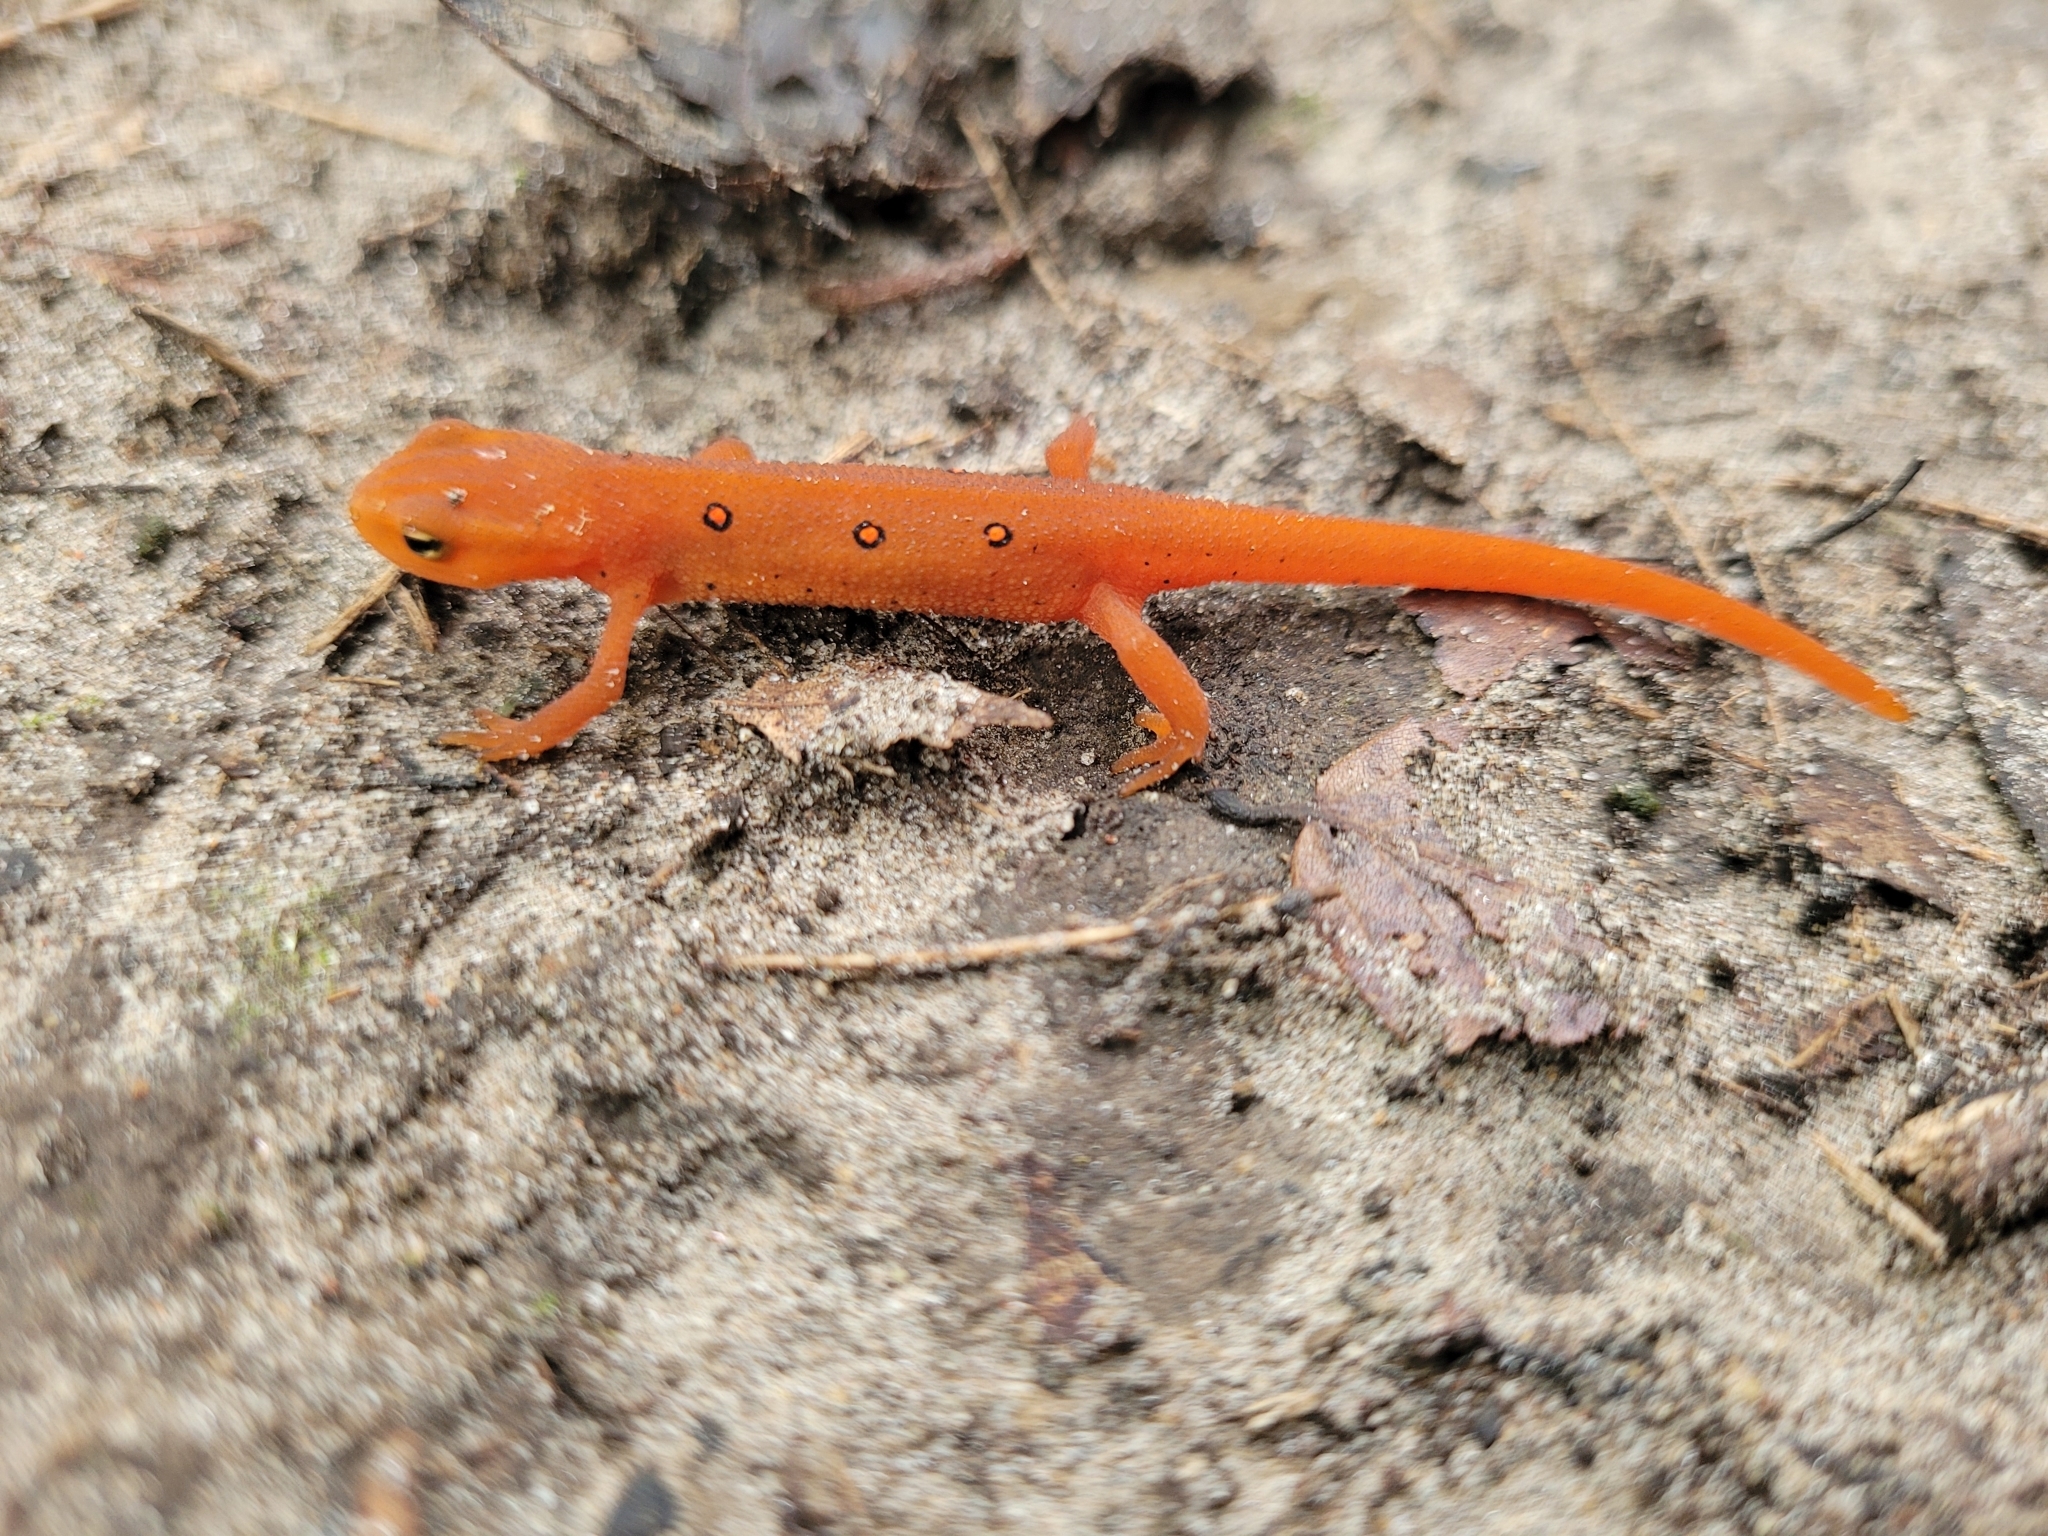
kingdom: Animalia
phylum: Chordata
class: Amphibia
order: Caudata
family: Salamandridae
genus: Notophthalmus
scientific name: Notophthalmus viridescens
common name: Eastern newt
